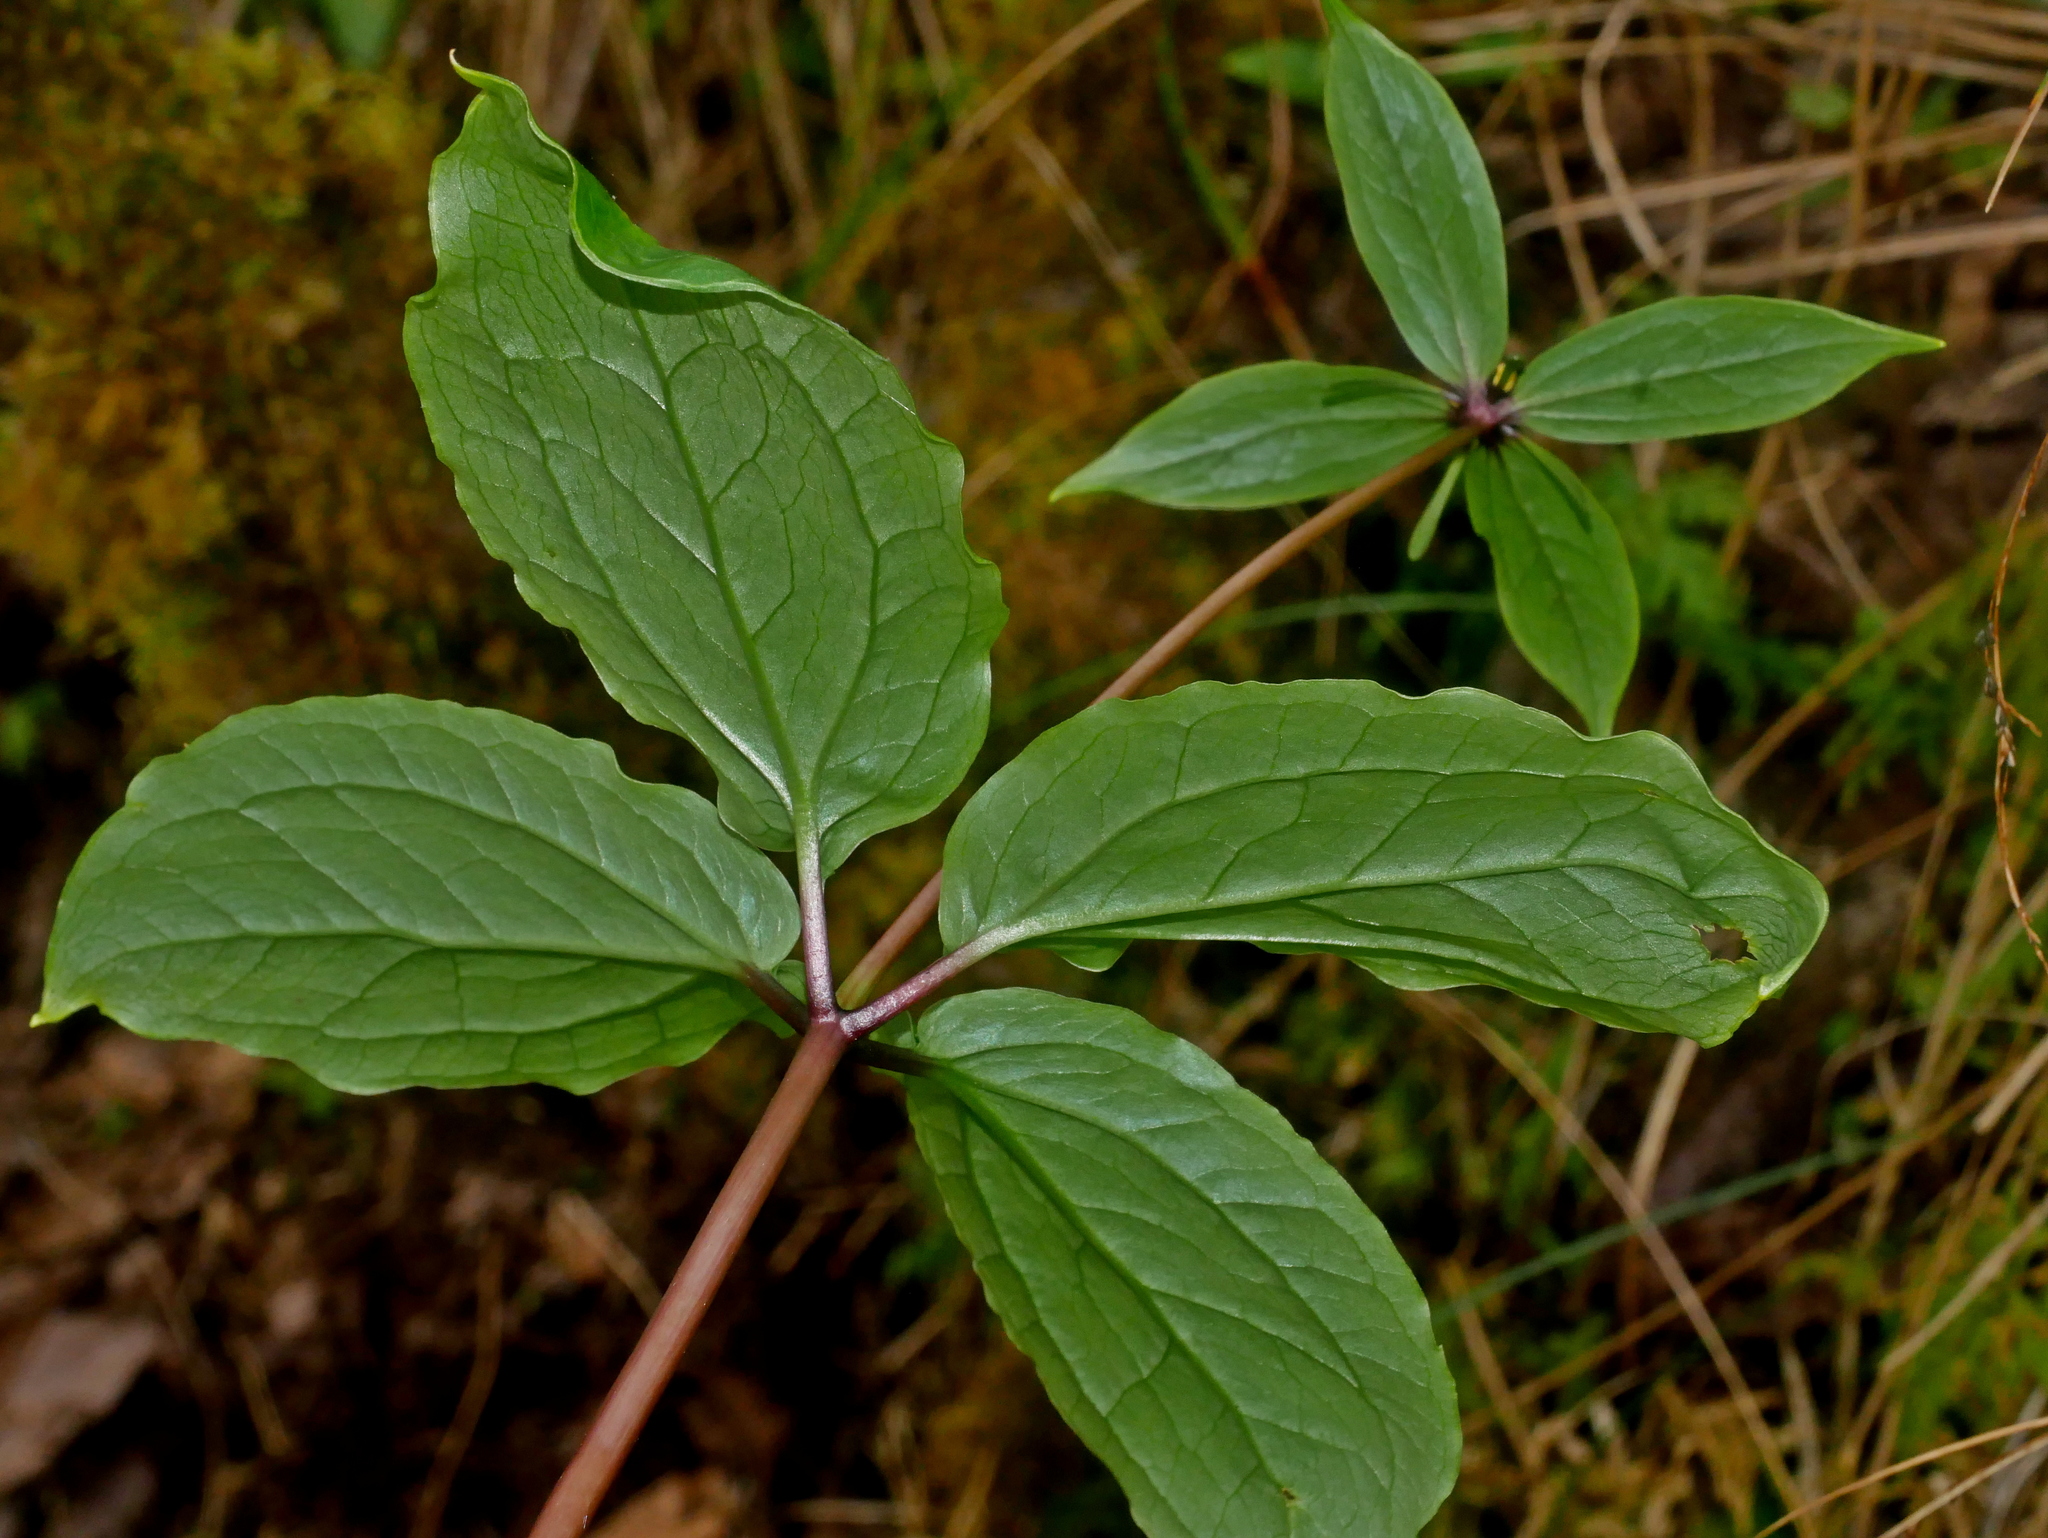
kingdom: Plantae
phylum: Tracheophyta
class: Liliopsida
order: Liliales
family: Melanthiaceae
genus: Paris
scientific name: Paris fargesii
